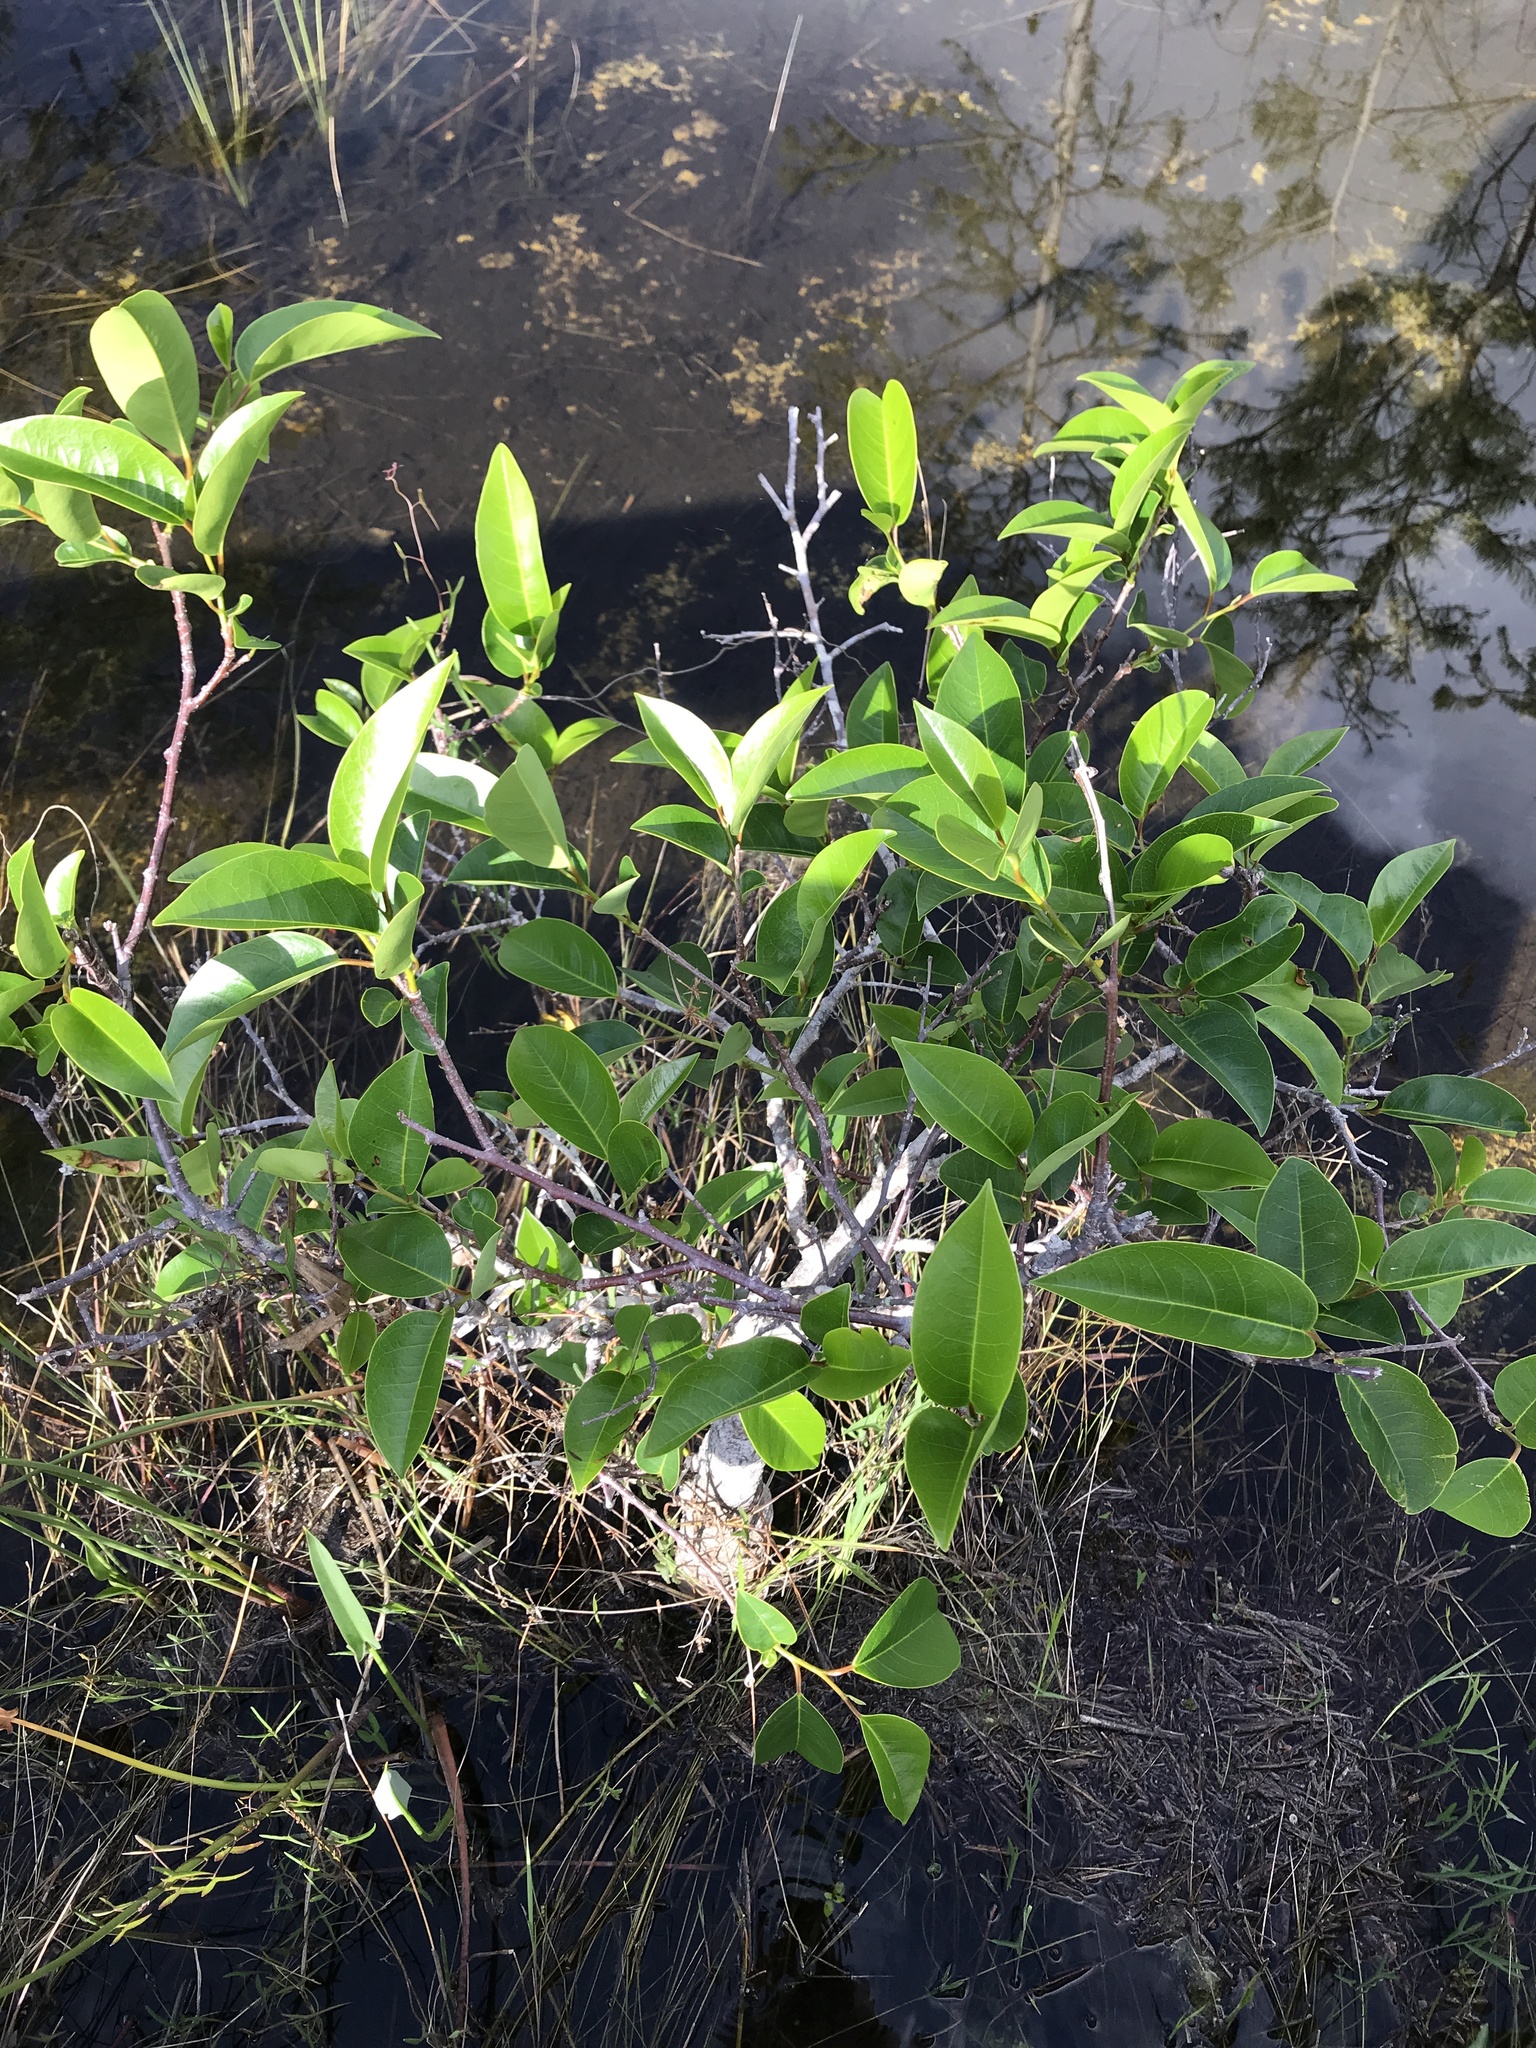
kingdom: Plantae
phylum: Tracheophyta
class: Magnoliopsida
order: Magnoliales
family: Annonaceae
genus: Annona
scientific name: Annona glabra
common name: Monkey apple
